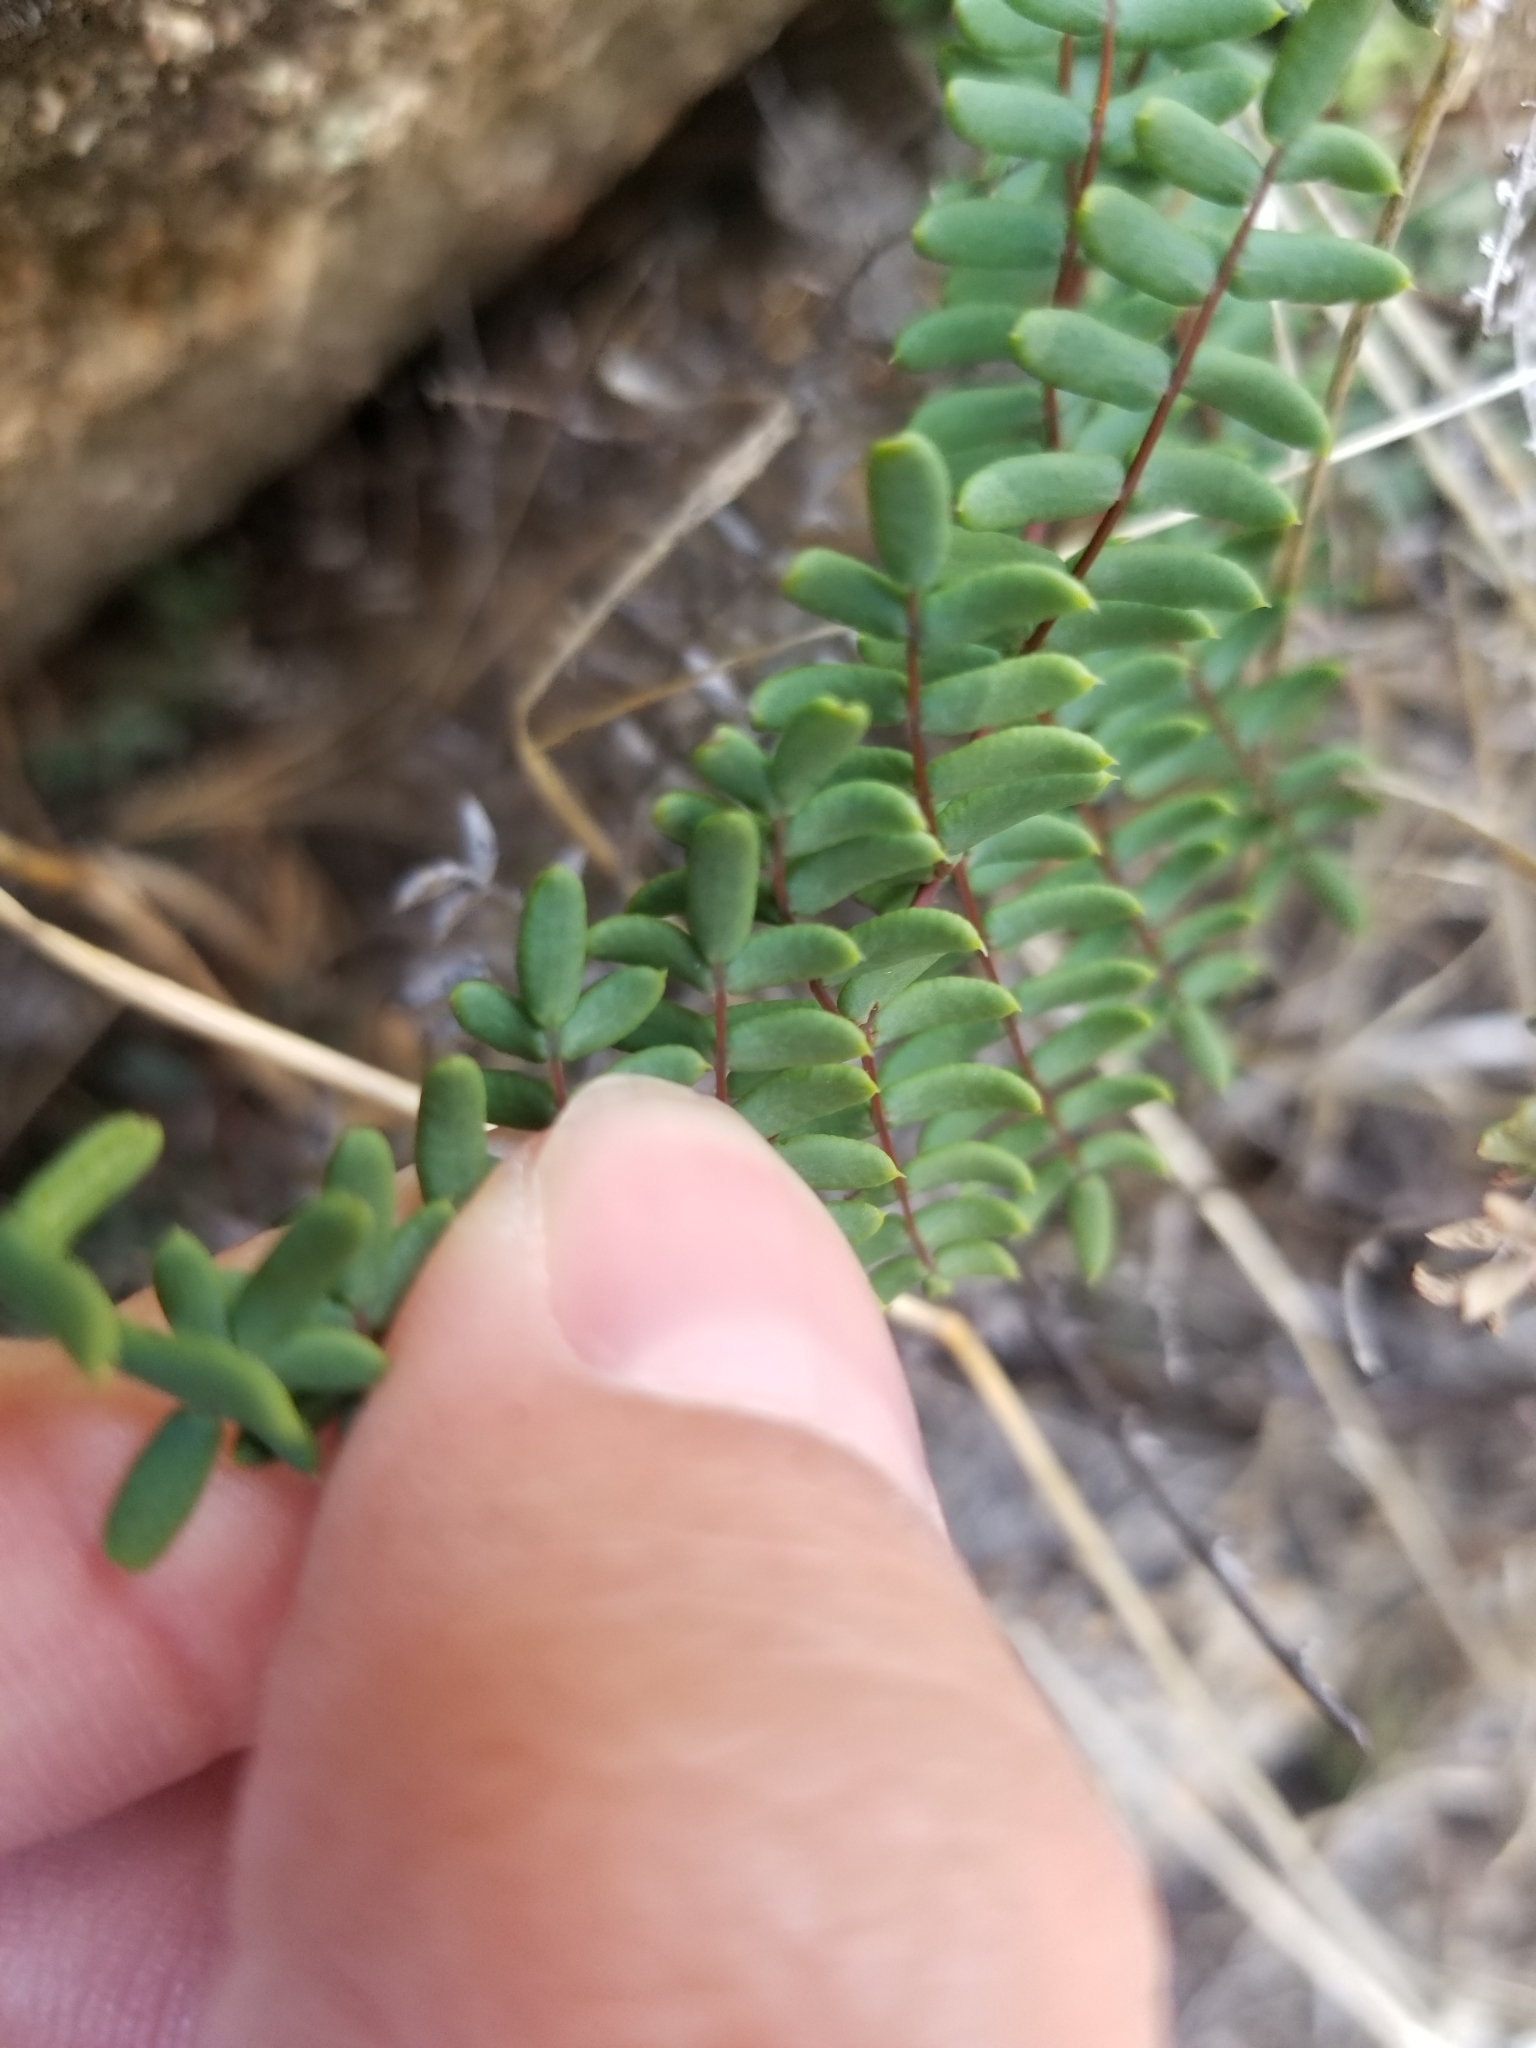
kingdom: Plantae
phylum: Tracheophyta
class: Polypodiopsida
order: Polypodiales
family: Pteridaceae
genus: Pellaea
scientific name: Pellaea mucronata
